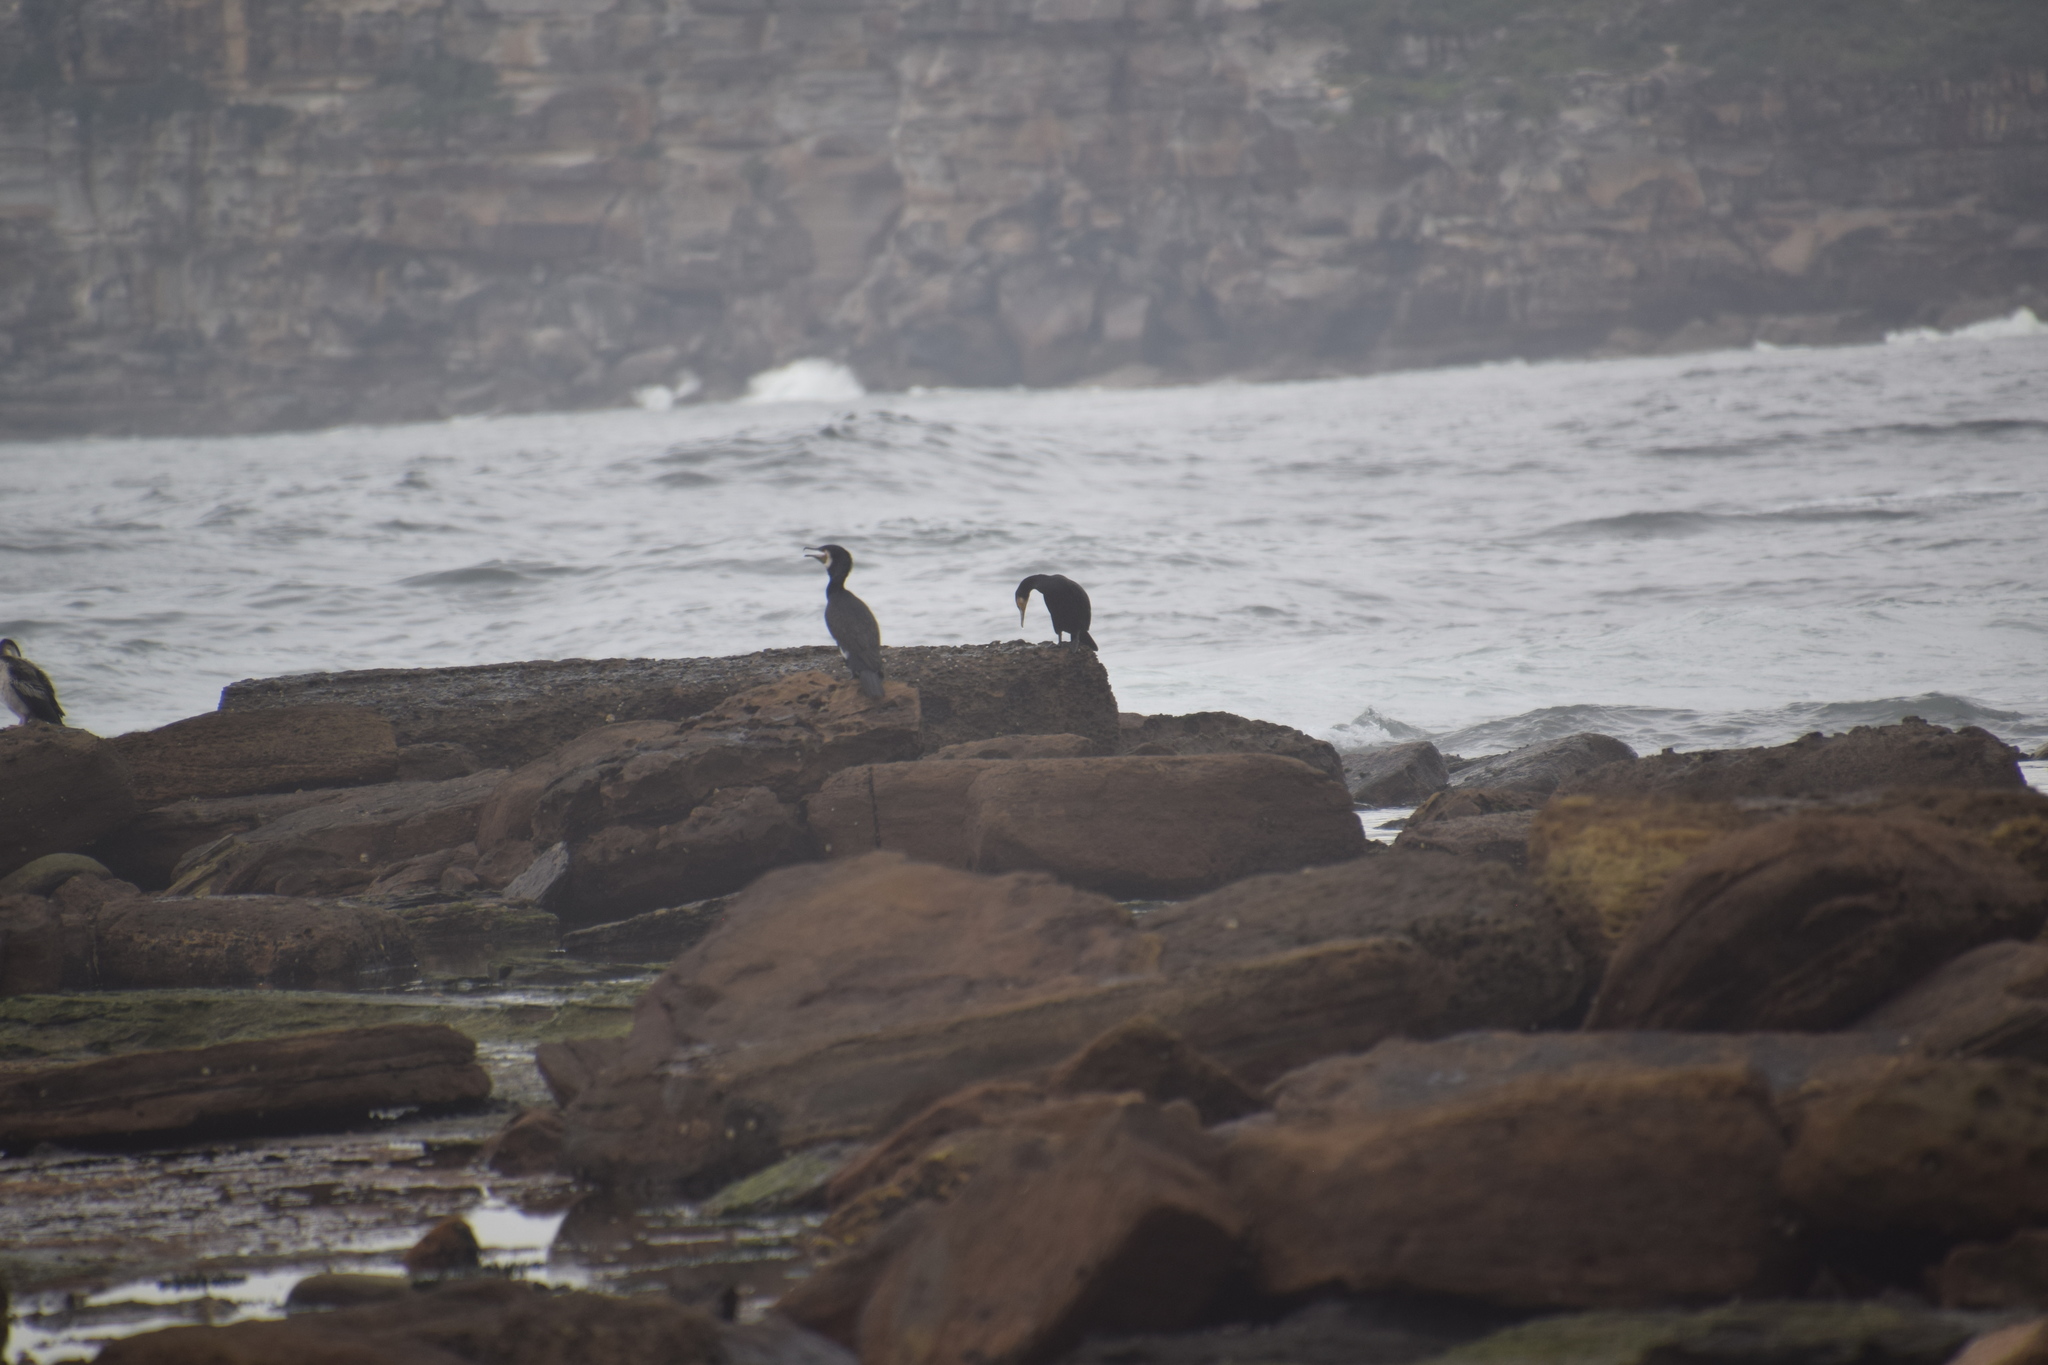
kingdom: Animalia
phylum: Chordata
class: Aves
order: Suliformes
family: Phalacrocoracidae
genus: Phalacrocorax
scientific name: Phalacrocorax carbo
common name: Great cormorant
